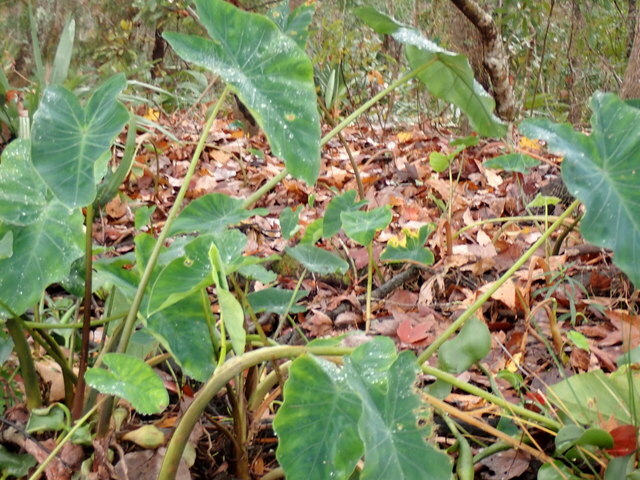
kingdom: Plantae
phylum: Tracheophyta
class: Liliopsida
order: Alismatales
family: Araceae
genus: Colocasia
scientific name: Colocasia esculenta
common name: Taro
